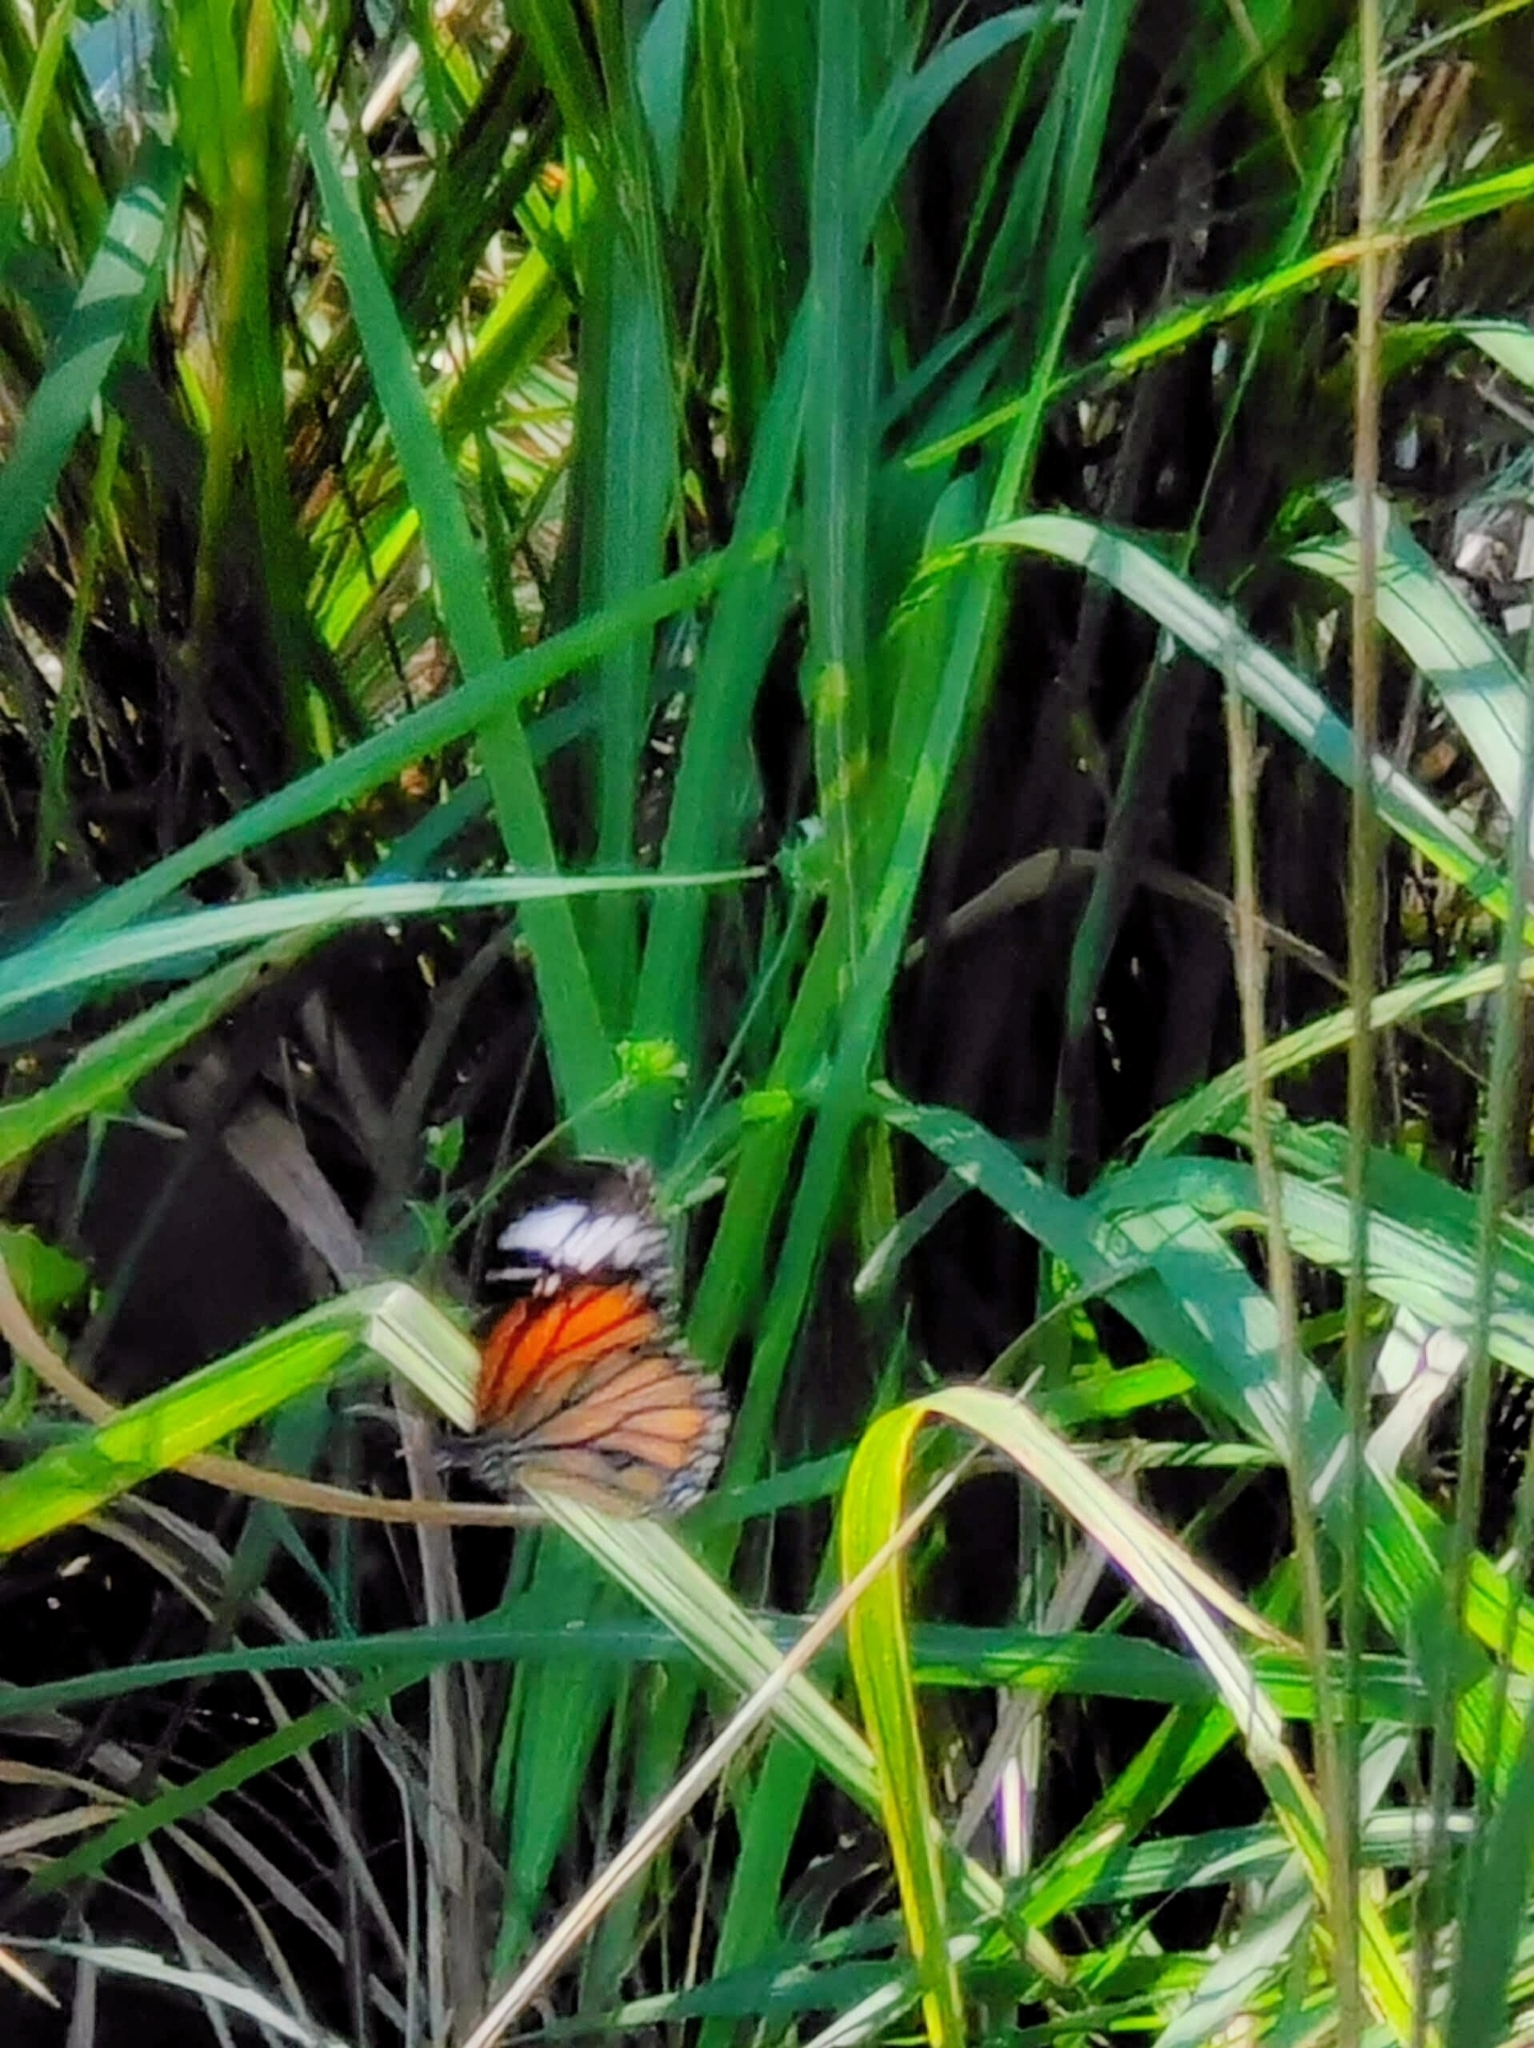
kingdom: Animalia
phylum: Arthropoda
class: Insecta
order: Lepidoptera
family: Nymphalidae
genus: Danaus
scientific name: Danaus genutia
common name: Common tiger butterfly
